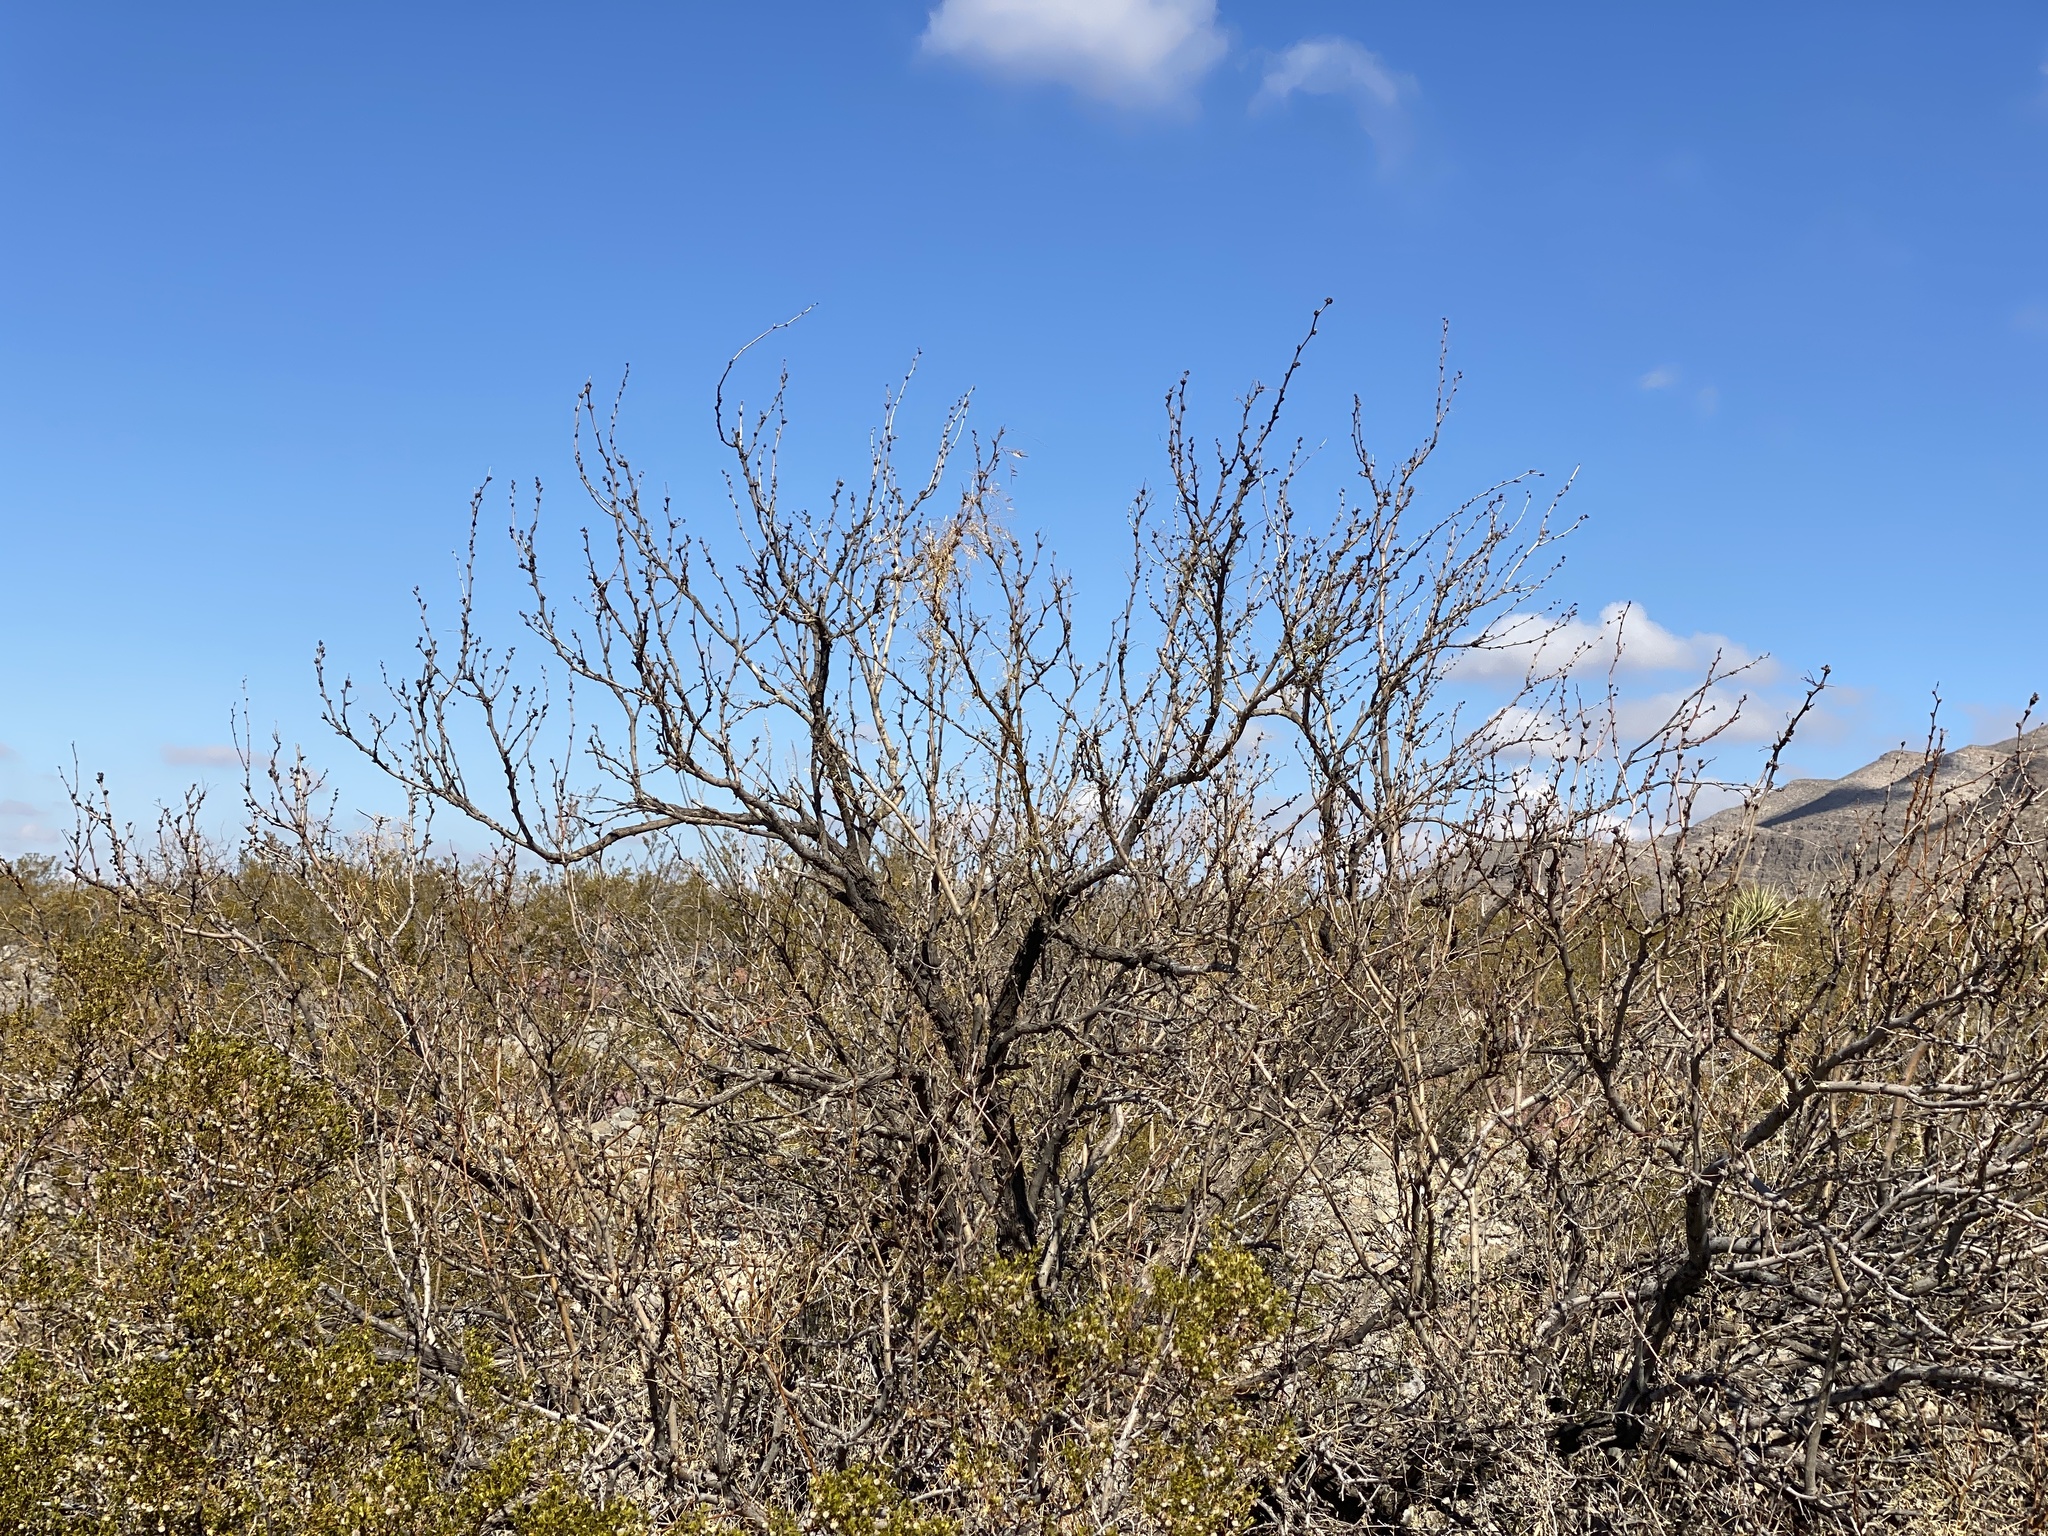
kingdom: Plantae
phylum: Tracheophyta
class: Magnoliopsida
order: Fabales
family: Fabaceae
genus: Prosopis
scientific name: Prosopis glandulosa
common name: Honey mesquite
